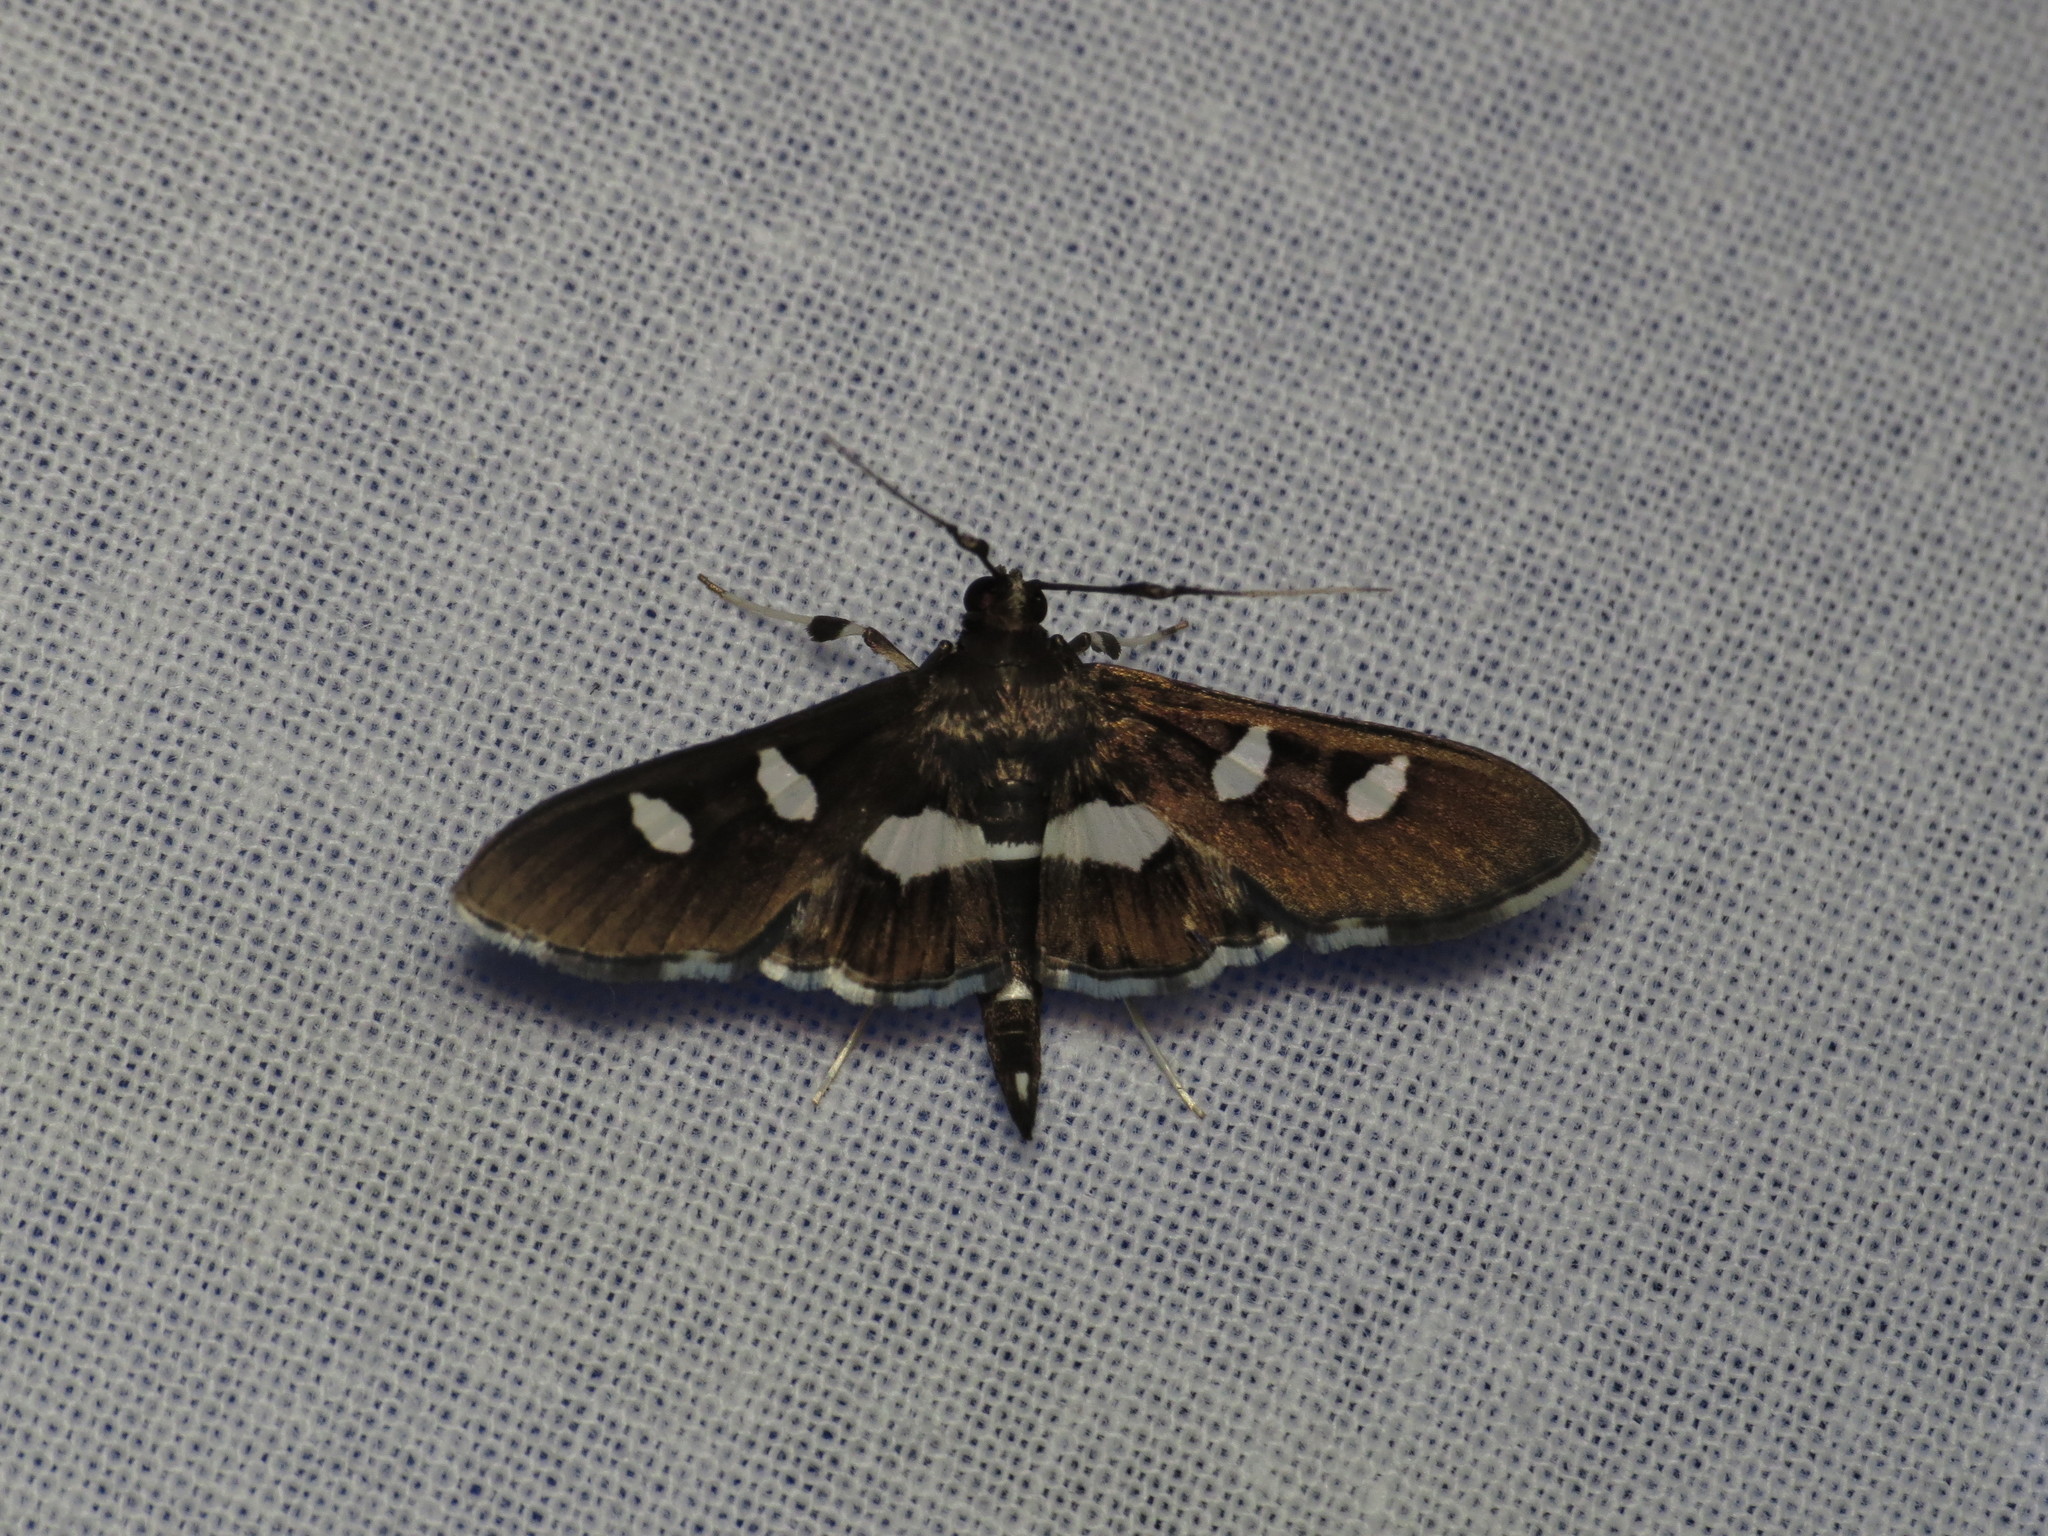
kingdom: Animalia
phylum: Arthropoda
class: Insecta
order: Lepidoptera
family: Crambidae
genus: Desmia
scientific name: Desmia
